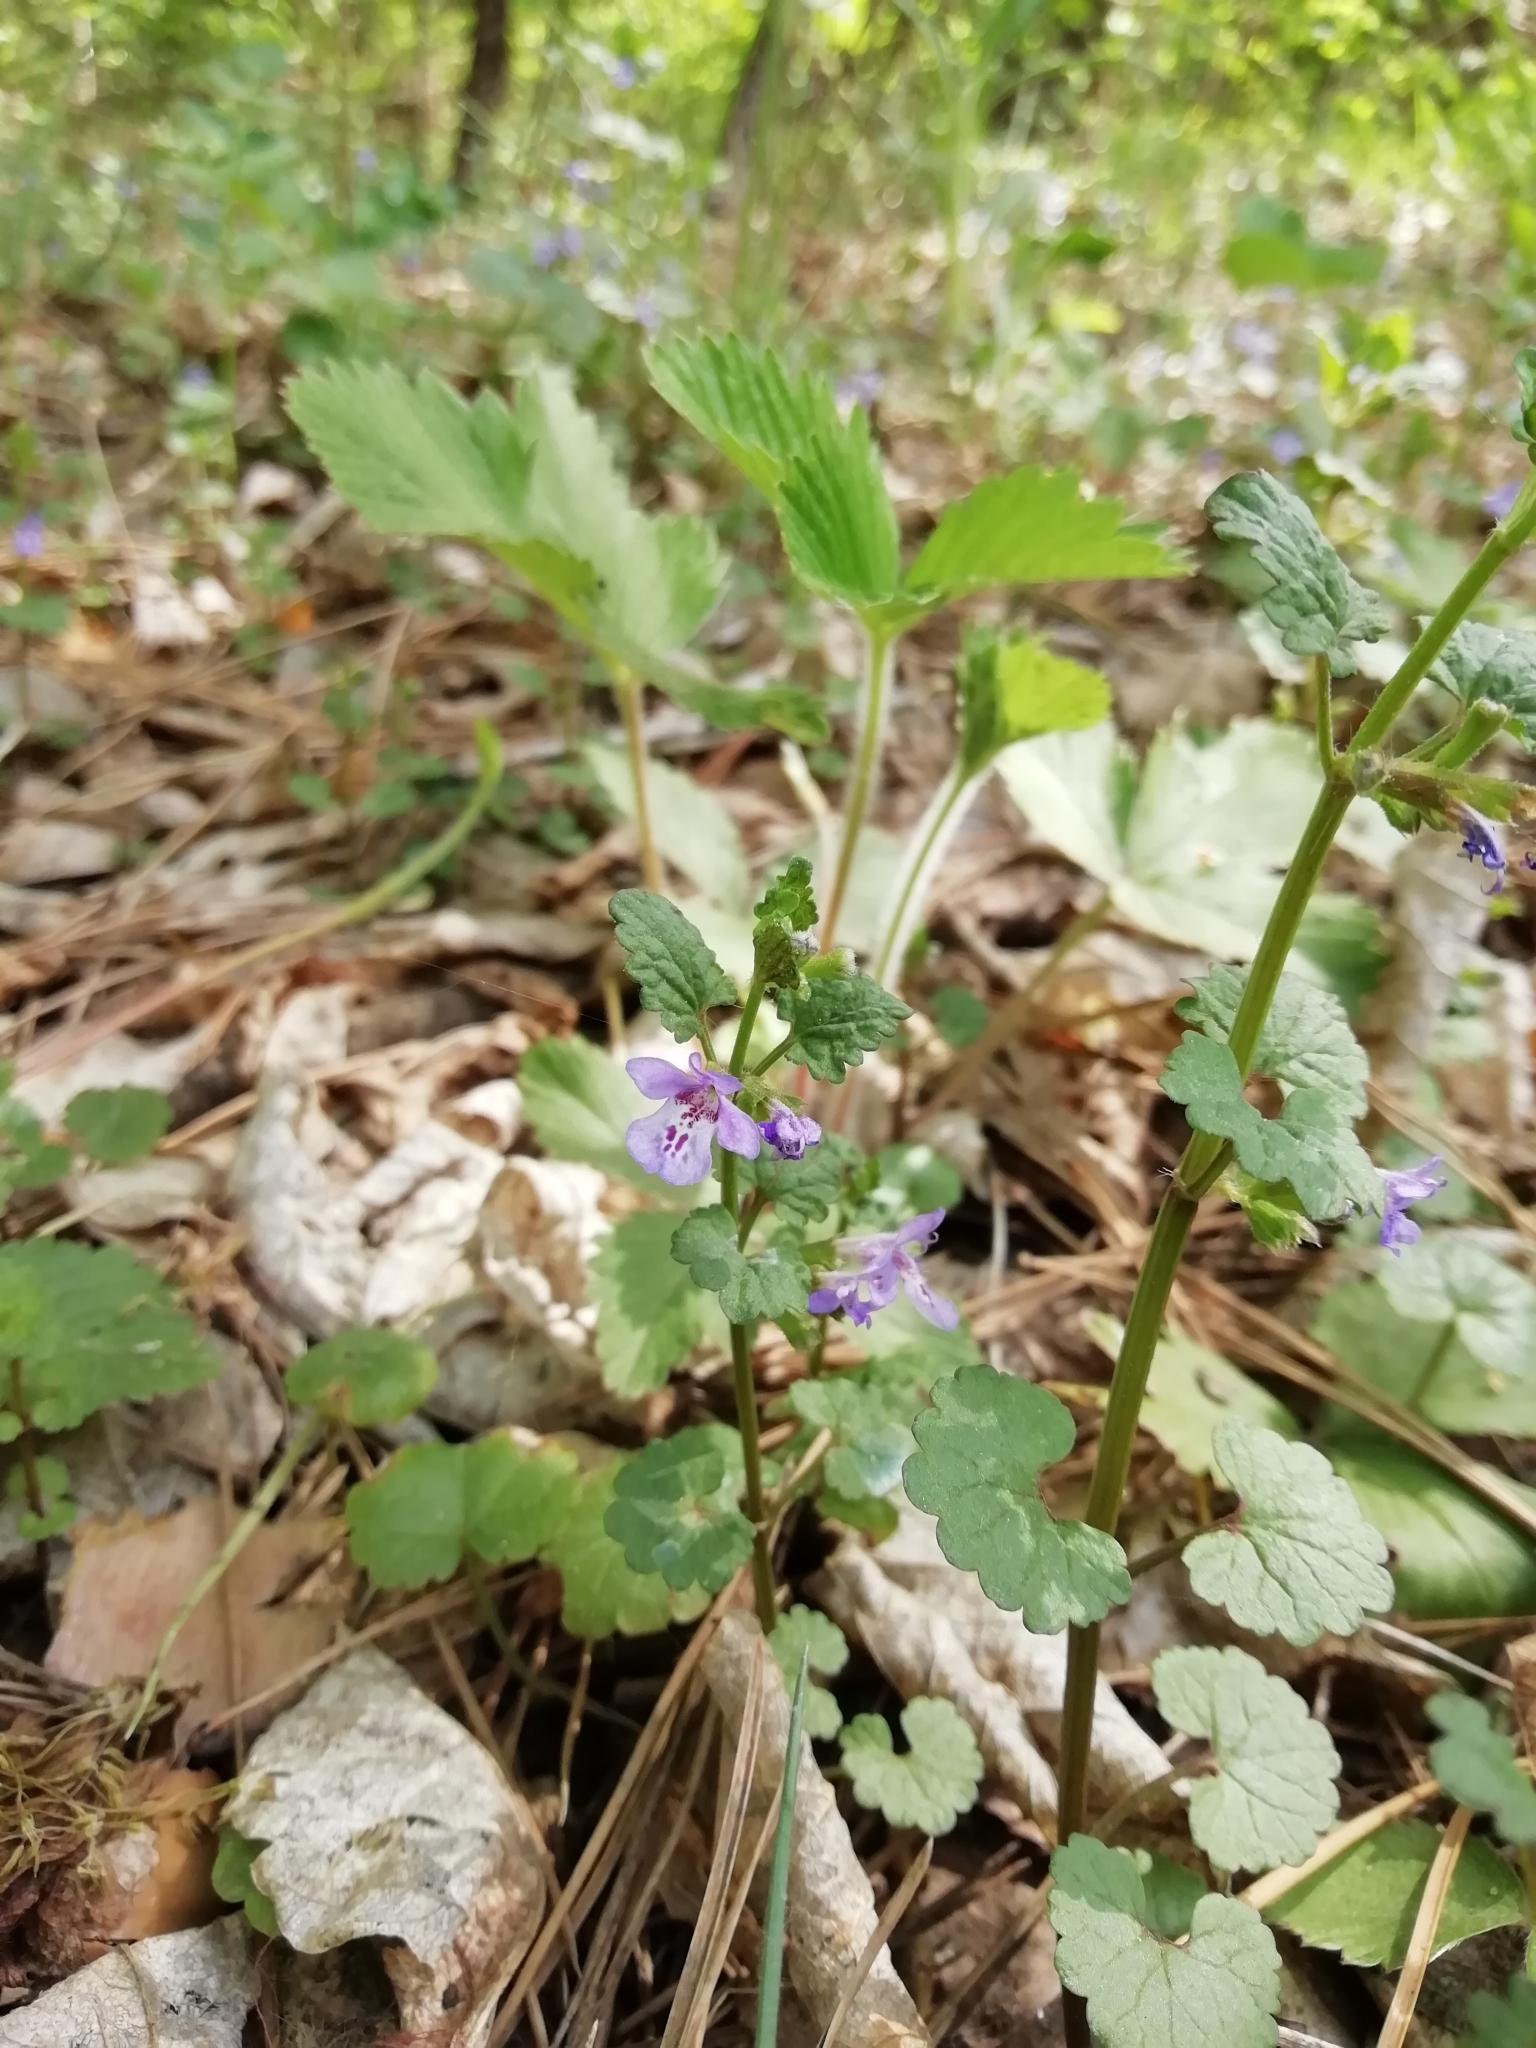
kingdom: Plantae
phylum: Tracheophyta
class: Magnoliopsida
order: Lamiales
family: Lamiaceae
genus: Glechoma
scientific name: Glechoma hederacea
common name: Ground ivy
